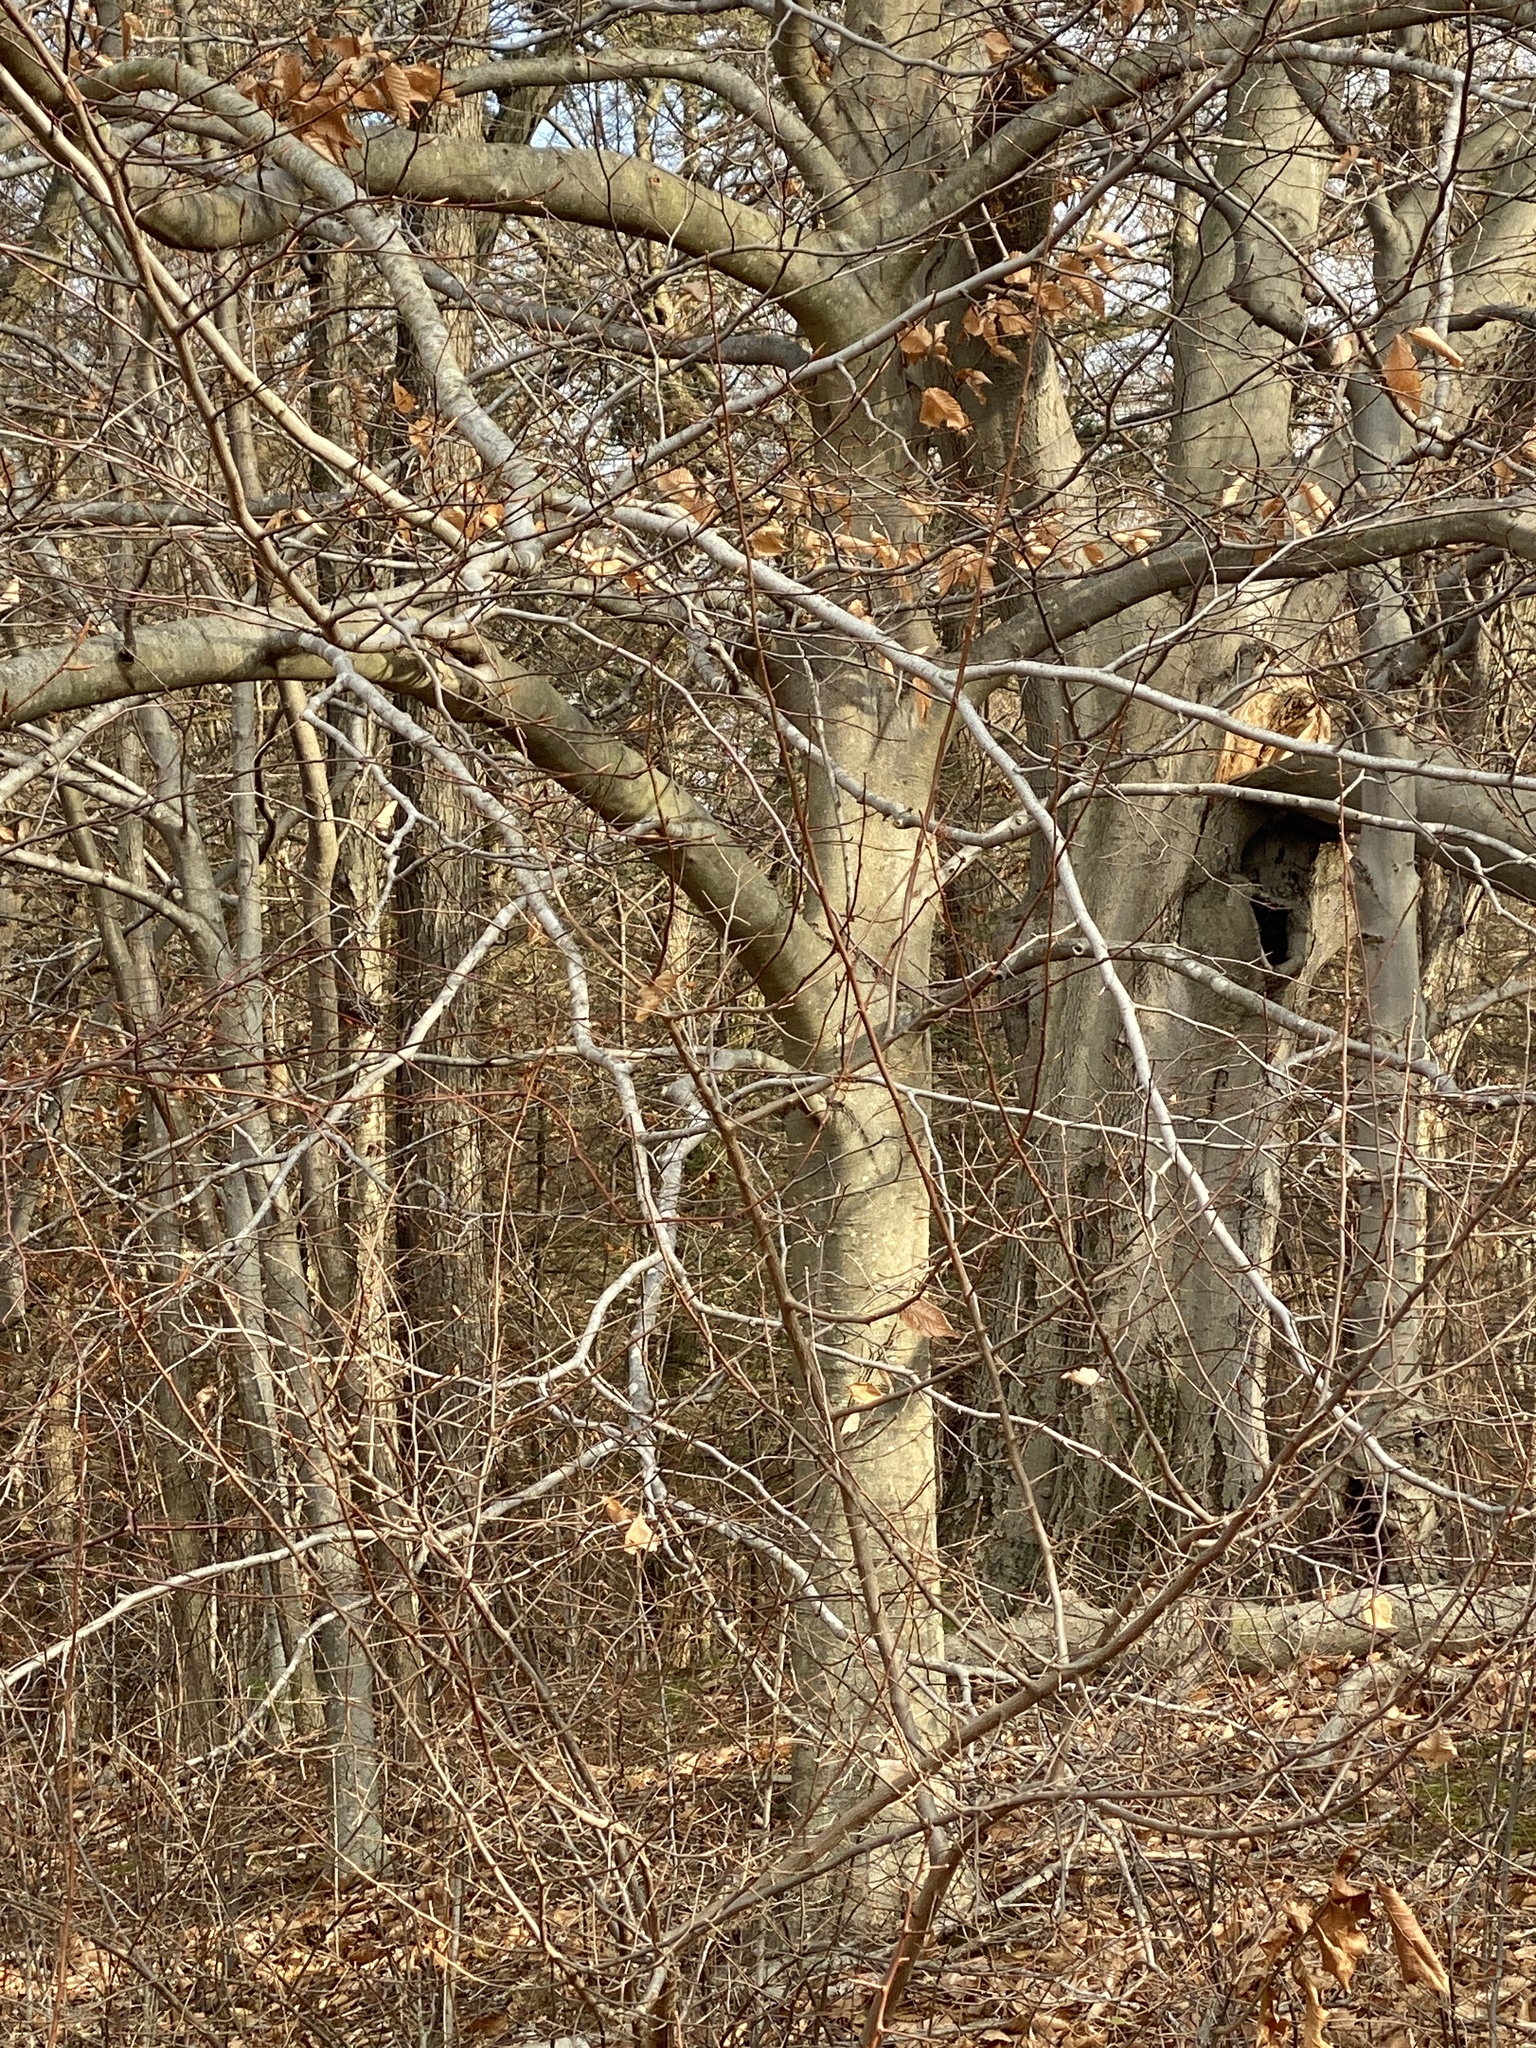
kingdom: Plantae
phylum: Tracheophyta
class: Magnoliopsida
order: Fagales
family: Fagaceae
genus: Fagus
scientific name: Fagus grandifolia
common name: American beech
